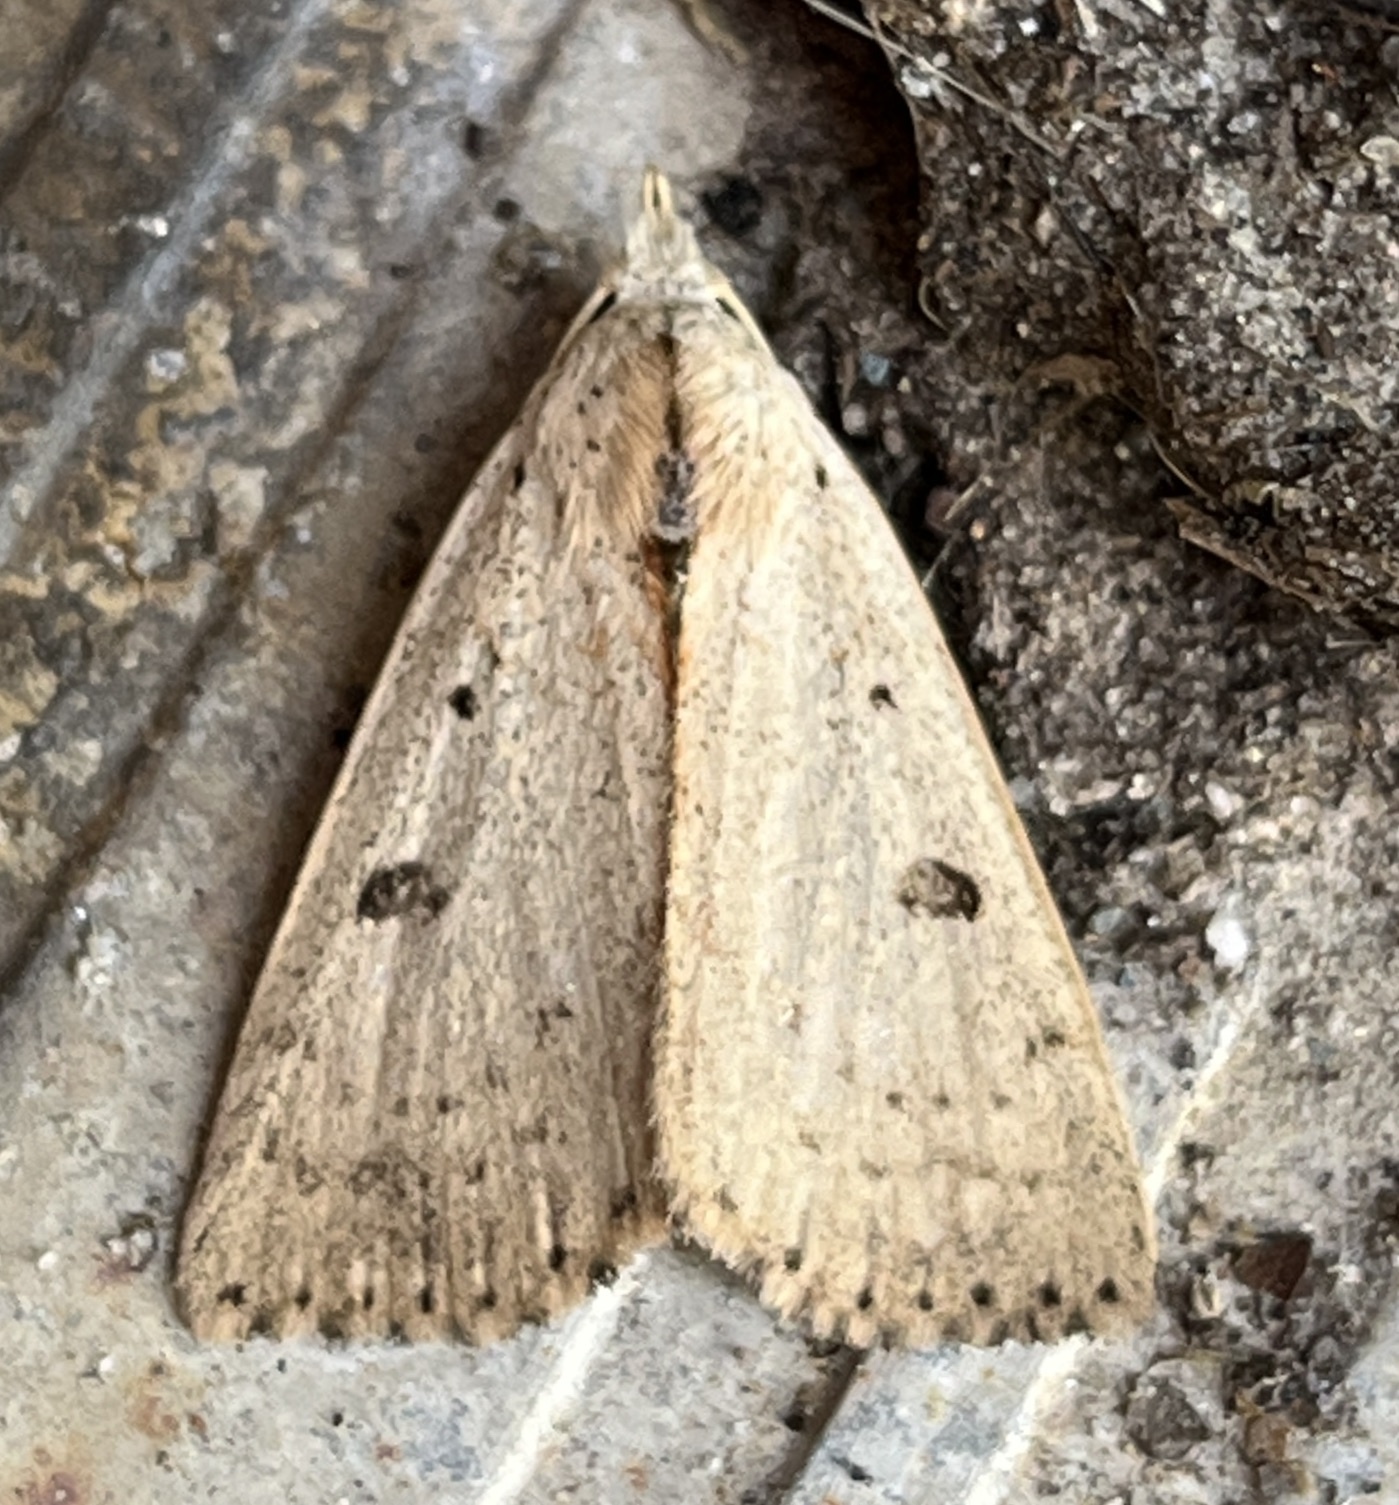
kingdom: Animalia
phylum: Arthropoda
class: Insecta
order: Lepidoptera
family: Erebidae
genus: Scolecocampa
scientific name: Scolecocampa liburna
